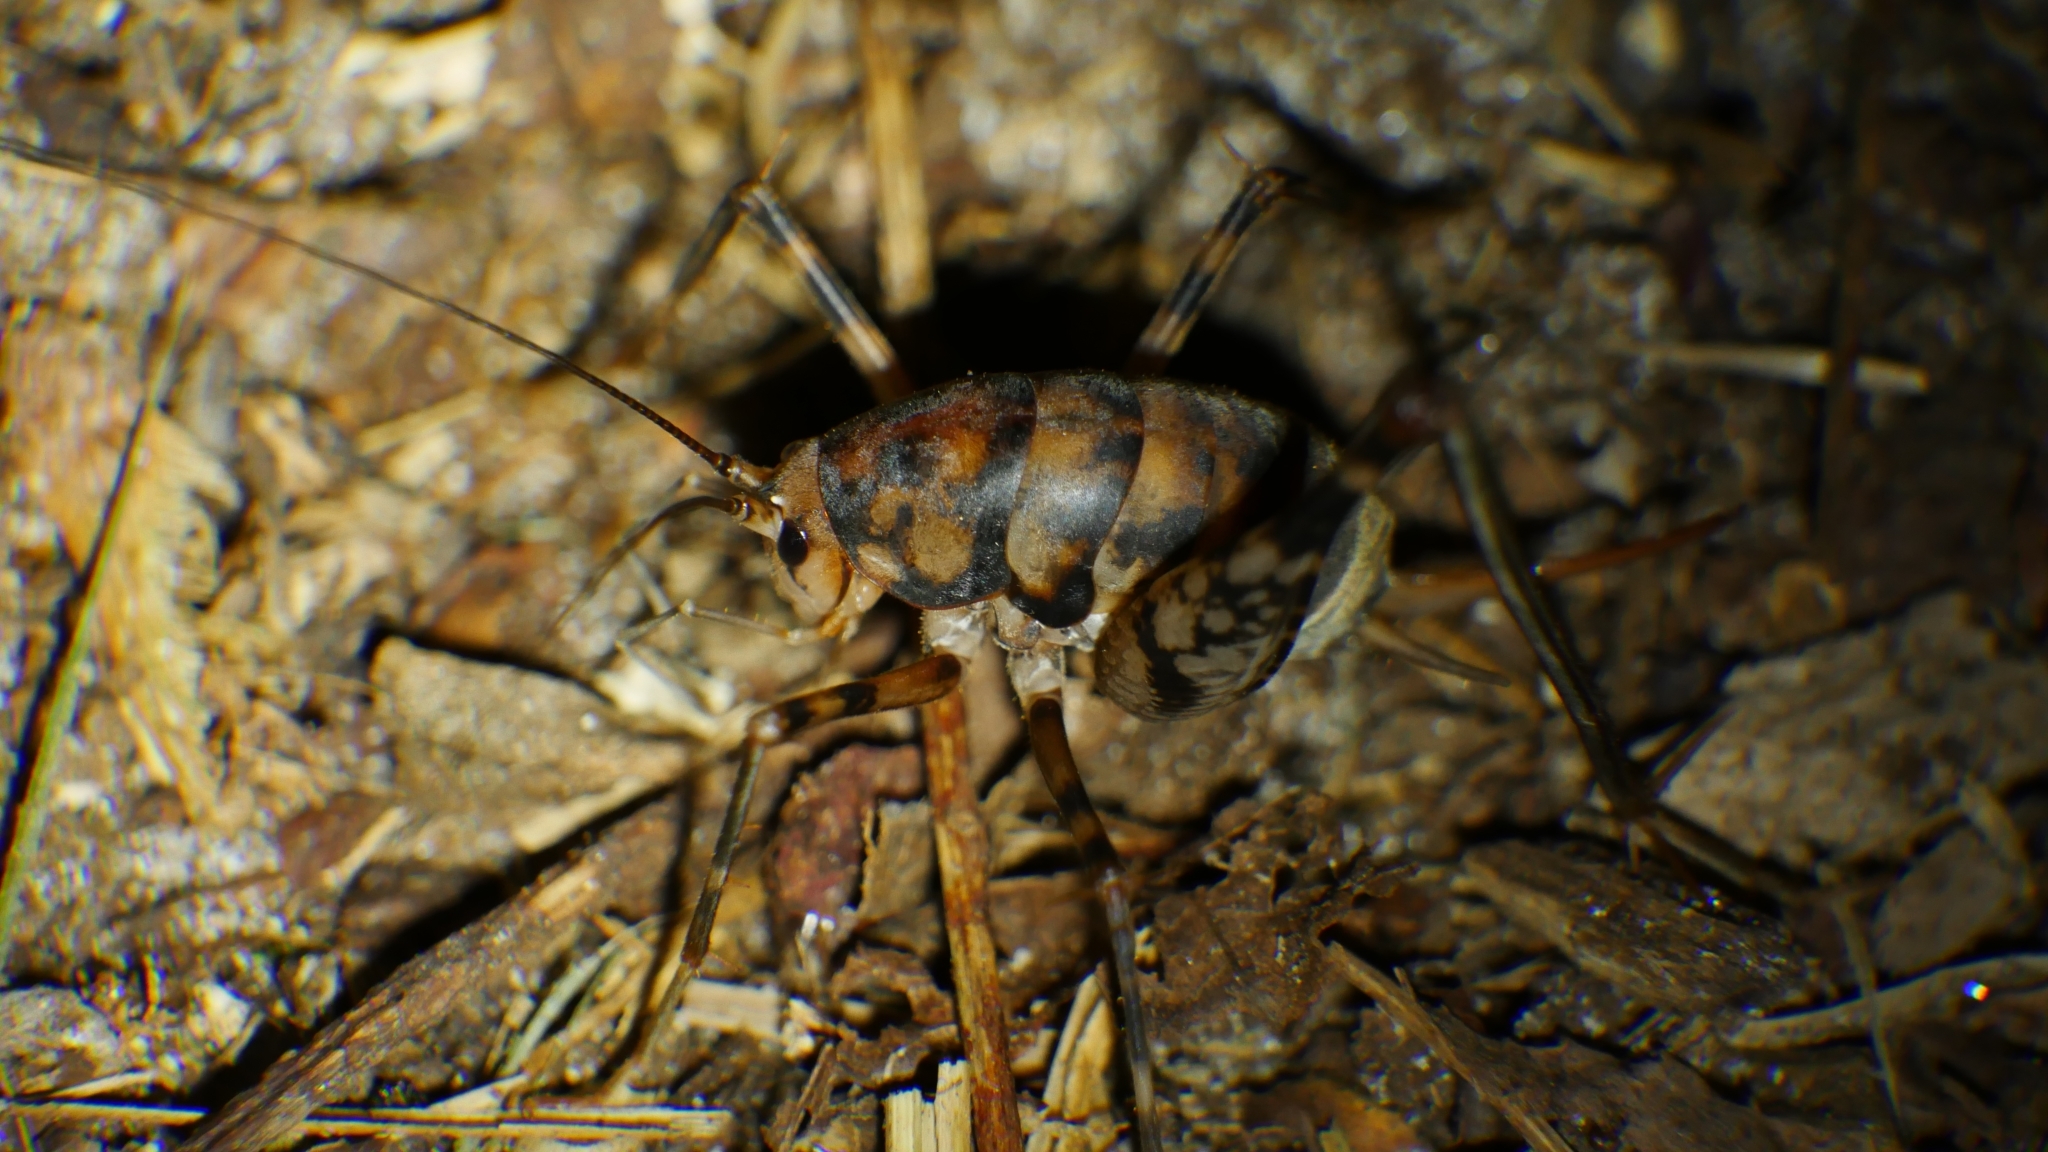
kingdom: Animalia
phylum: Arthropoda
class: Insecta
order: Orthoptera
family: Rhaphidophoridae
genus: Tachycines
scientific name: Tachycines asynamorus
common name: Greenhouse camel cricket
